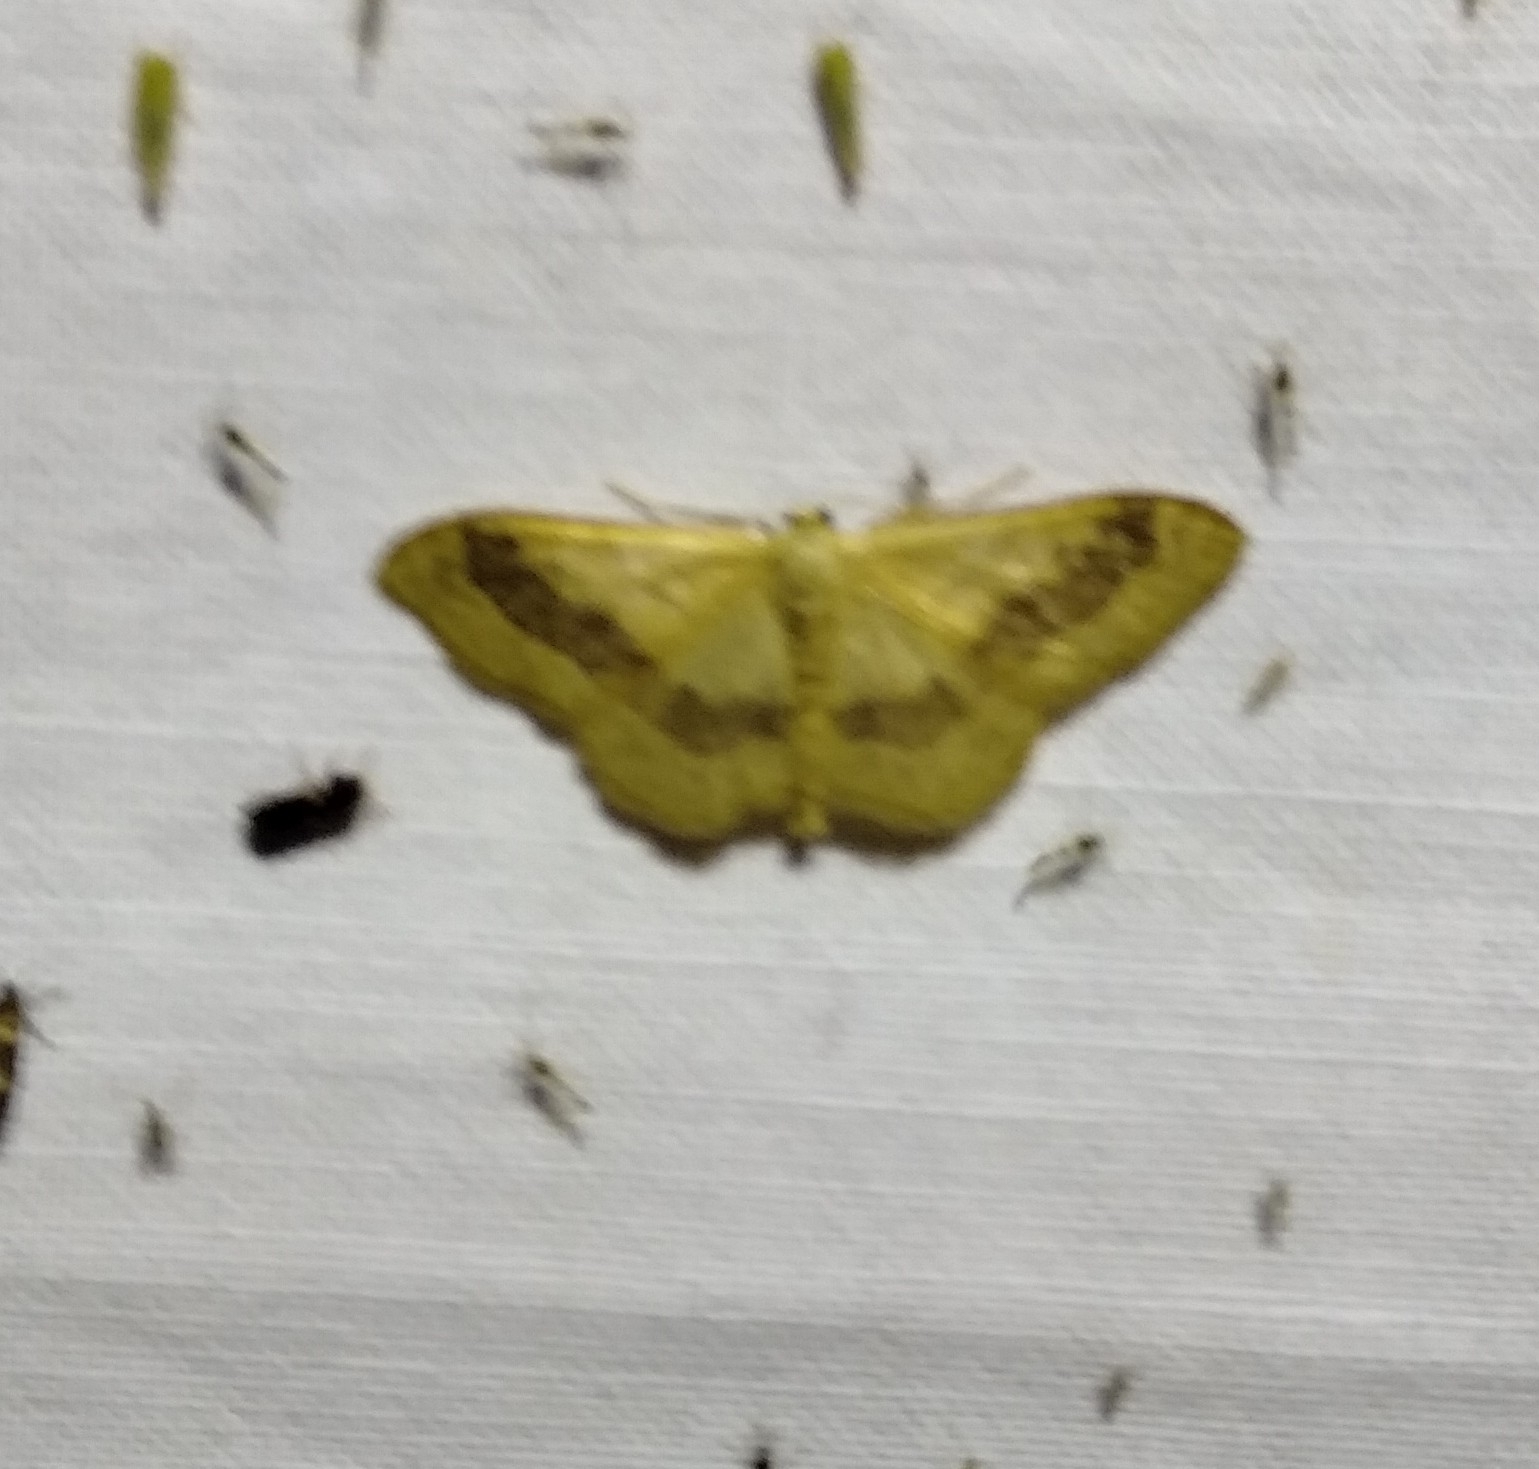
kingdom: Animalia
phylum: Arthropoda
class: Insecta
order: Lepidoptera
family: Geometridae
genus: Idaea
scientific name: Idaea aversata
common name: Riband wave
